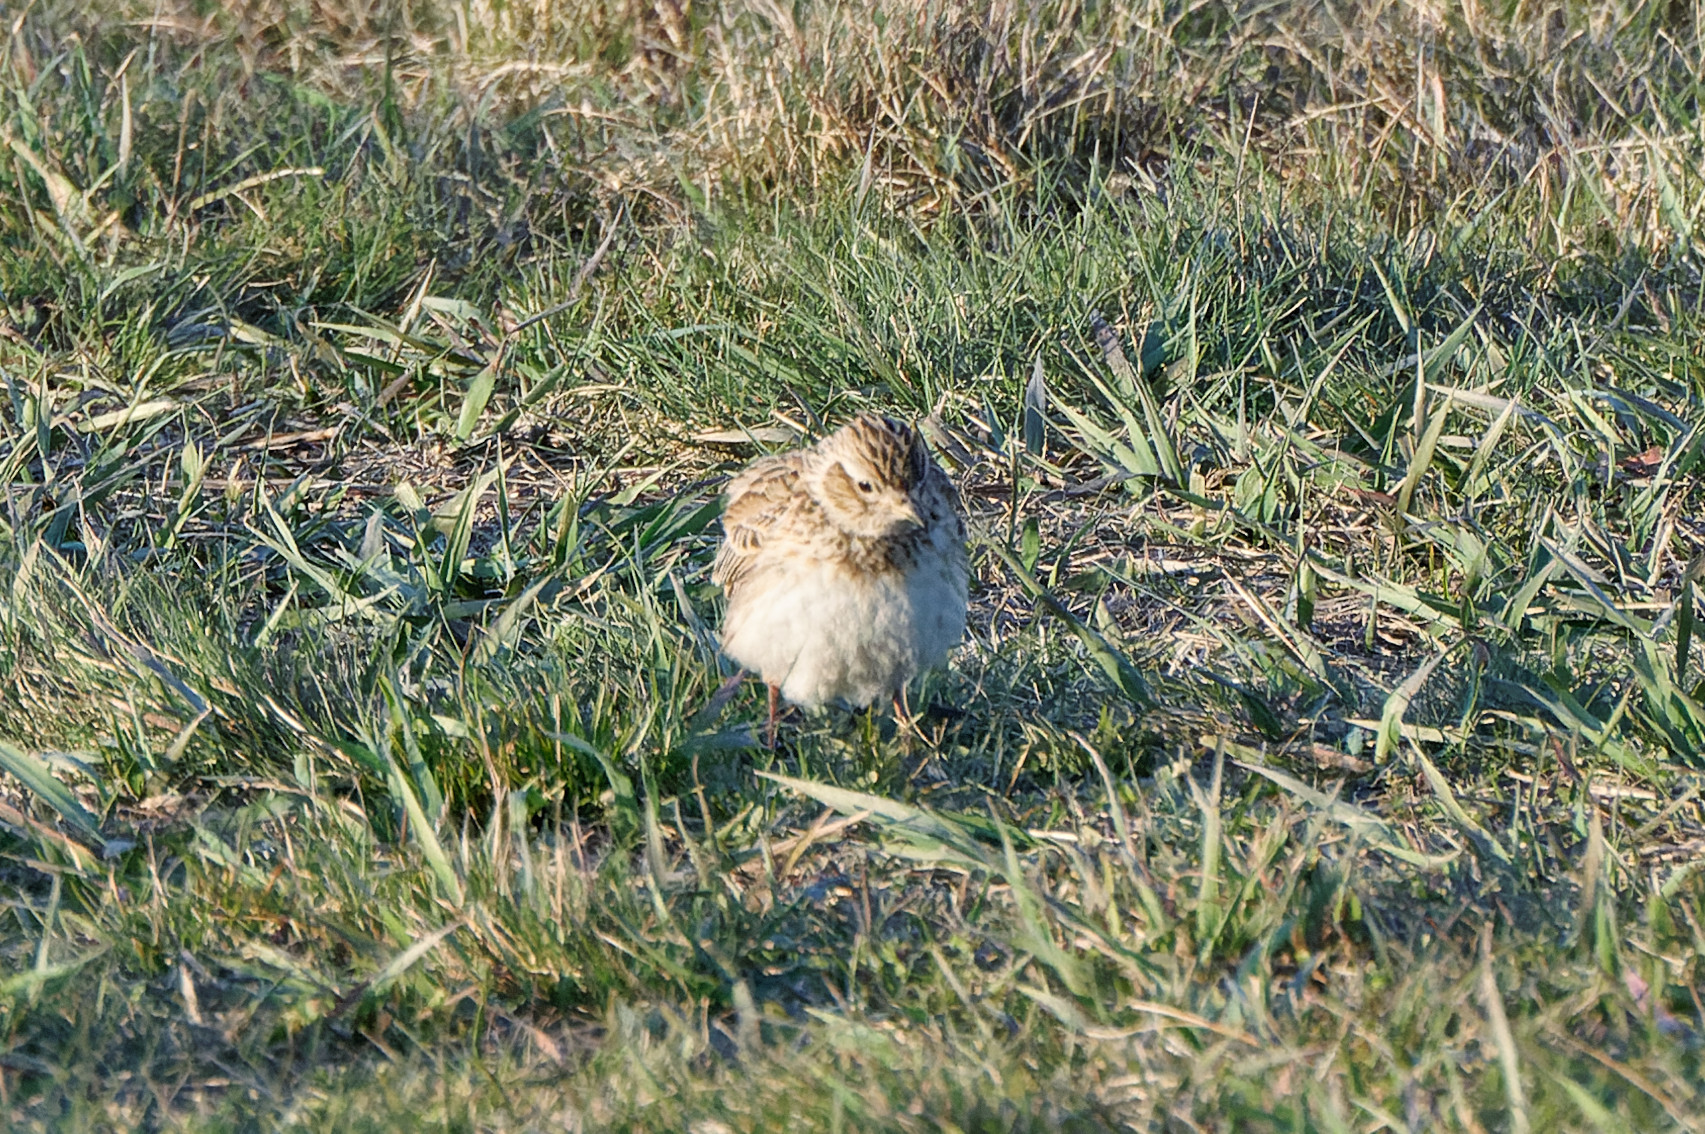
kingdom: Animalia
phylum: Chordata
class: Aves
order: Passeriformes
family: Alaudidae
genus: Alauda
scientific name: Alauda arvensis
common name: Eurasian skylark
